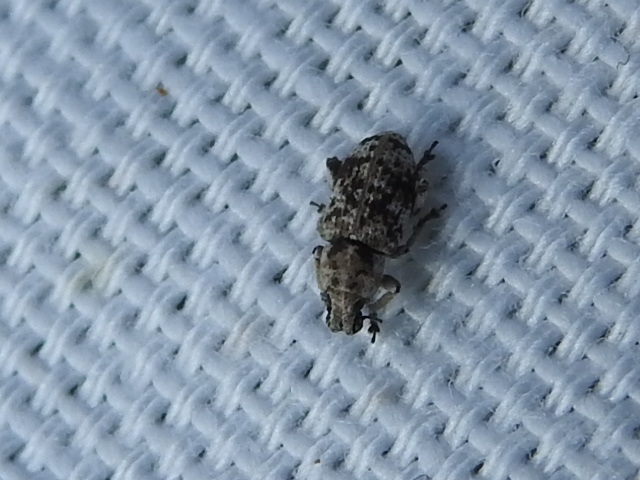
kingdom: Animalia
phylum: Arthropoda
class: Insecta
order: Coleoptera
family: Curculionidae
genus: Colecerus
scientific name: Colecerus marmoratus
